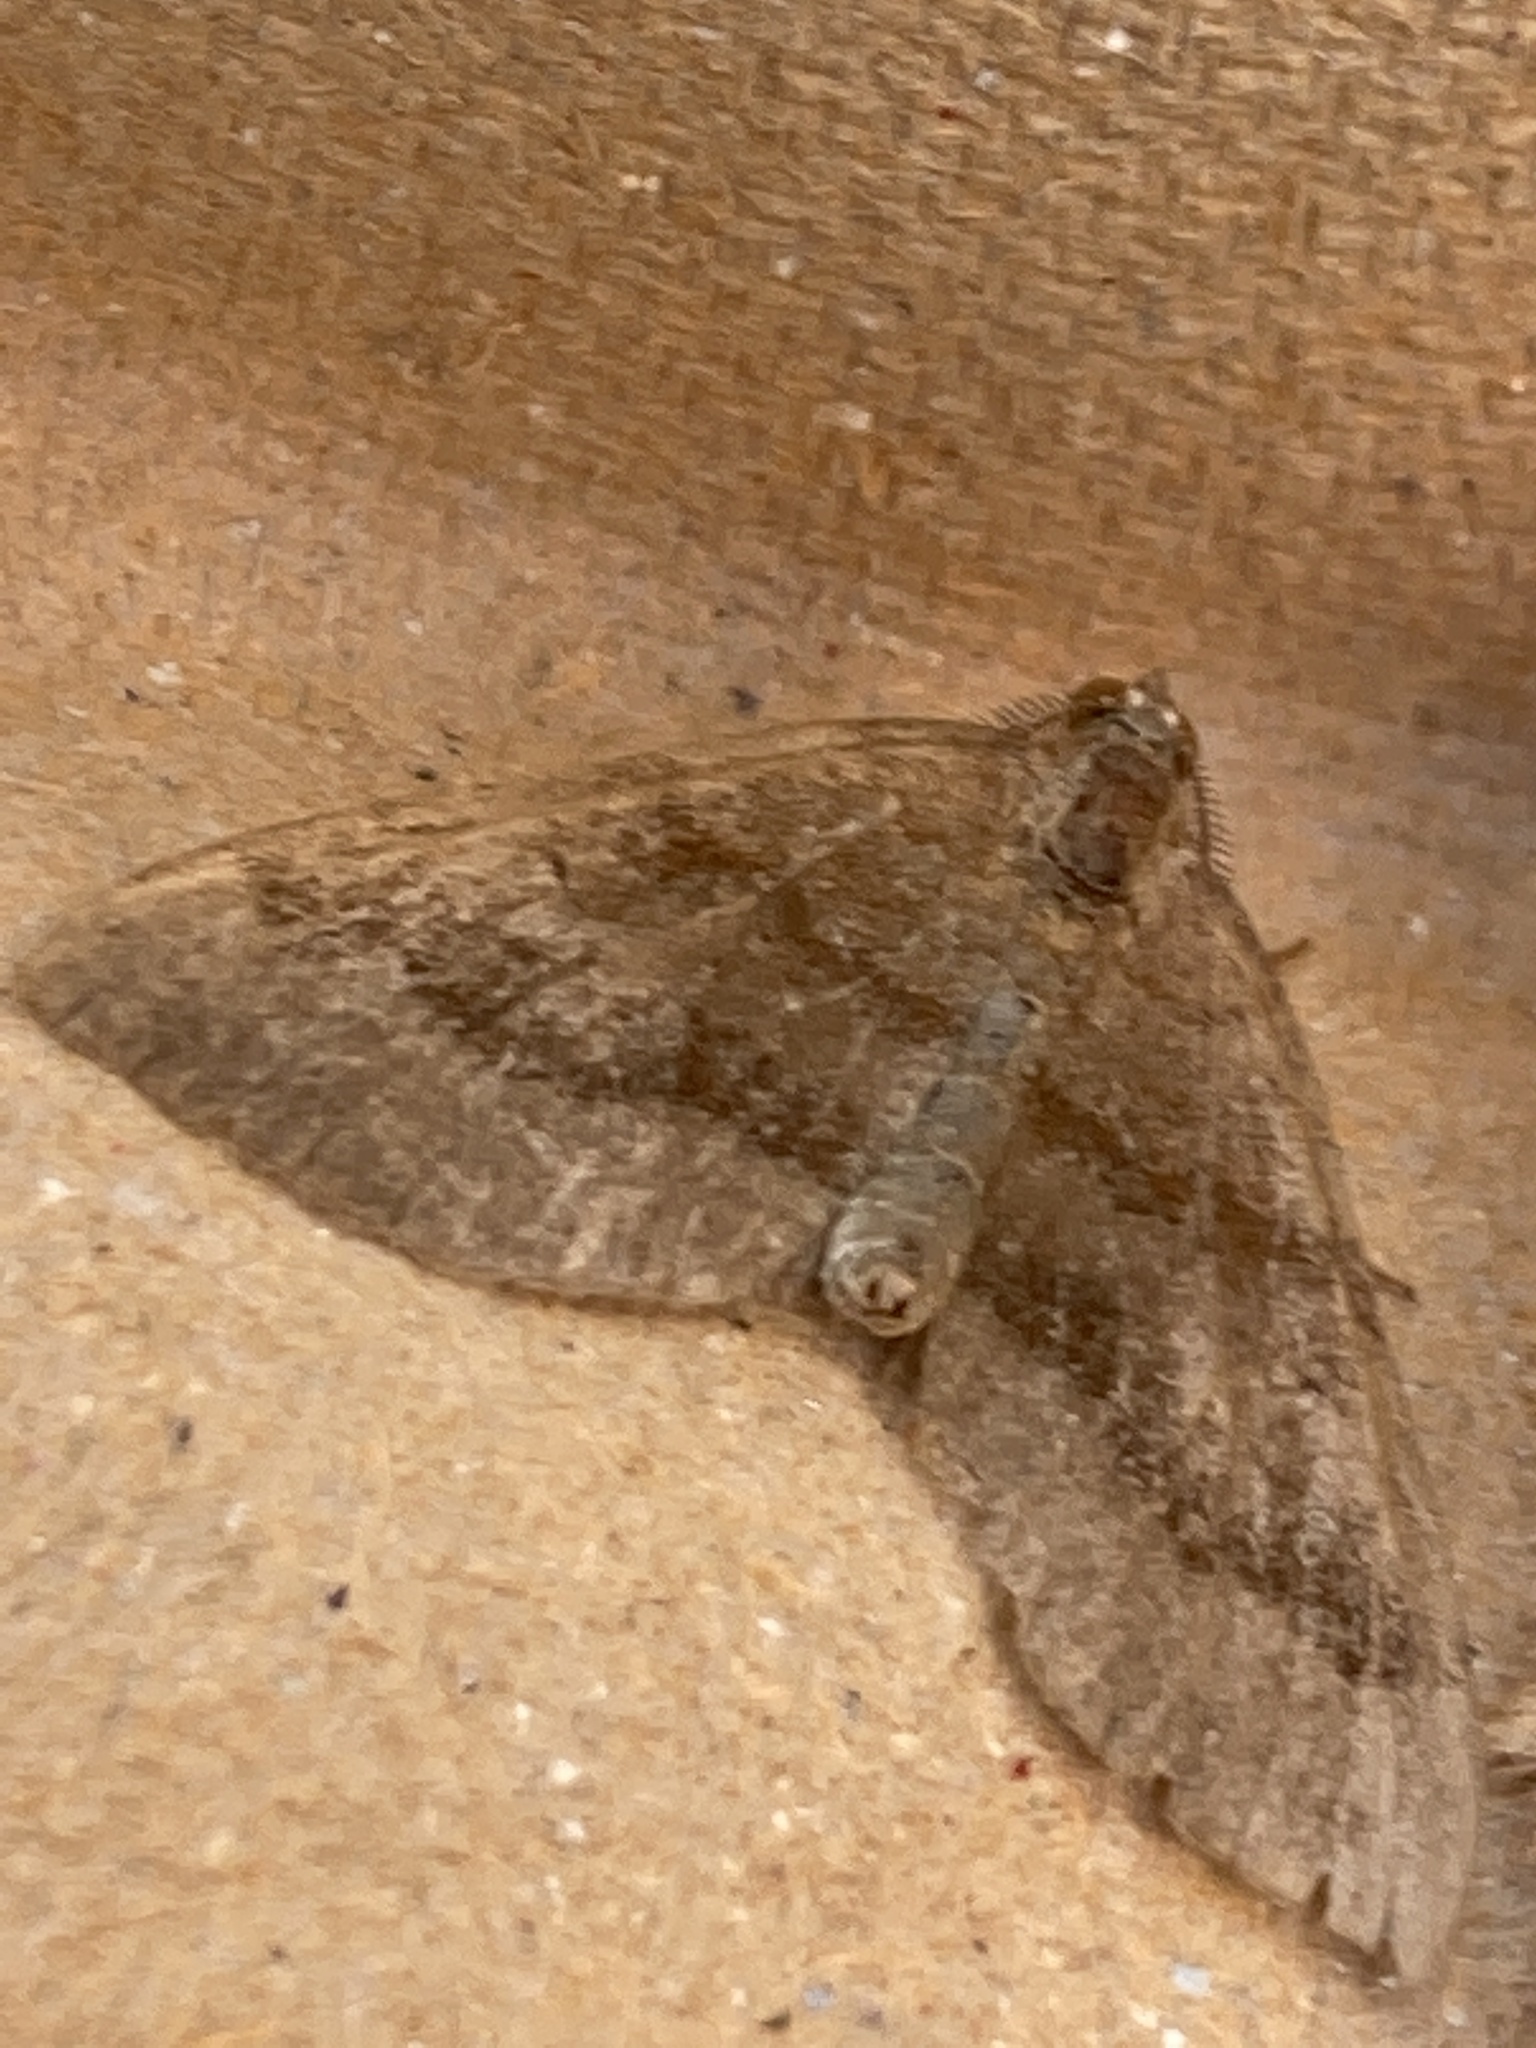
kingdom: Animalia
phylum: Arthropoda
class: Insecta
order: Lepidoptera
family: Geometridae
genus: Scotopteryx
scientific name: Scotopteryx chenopodiata
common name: Shaded broad-bar
